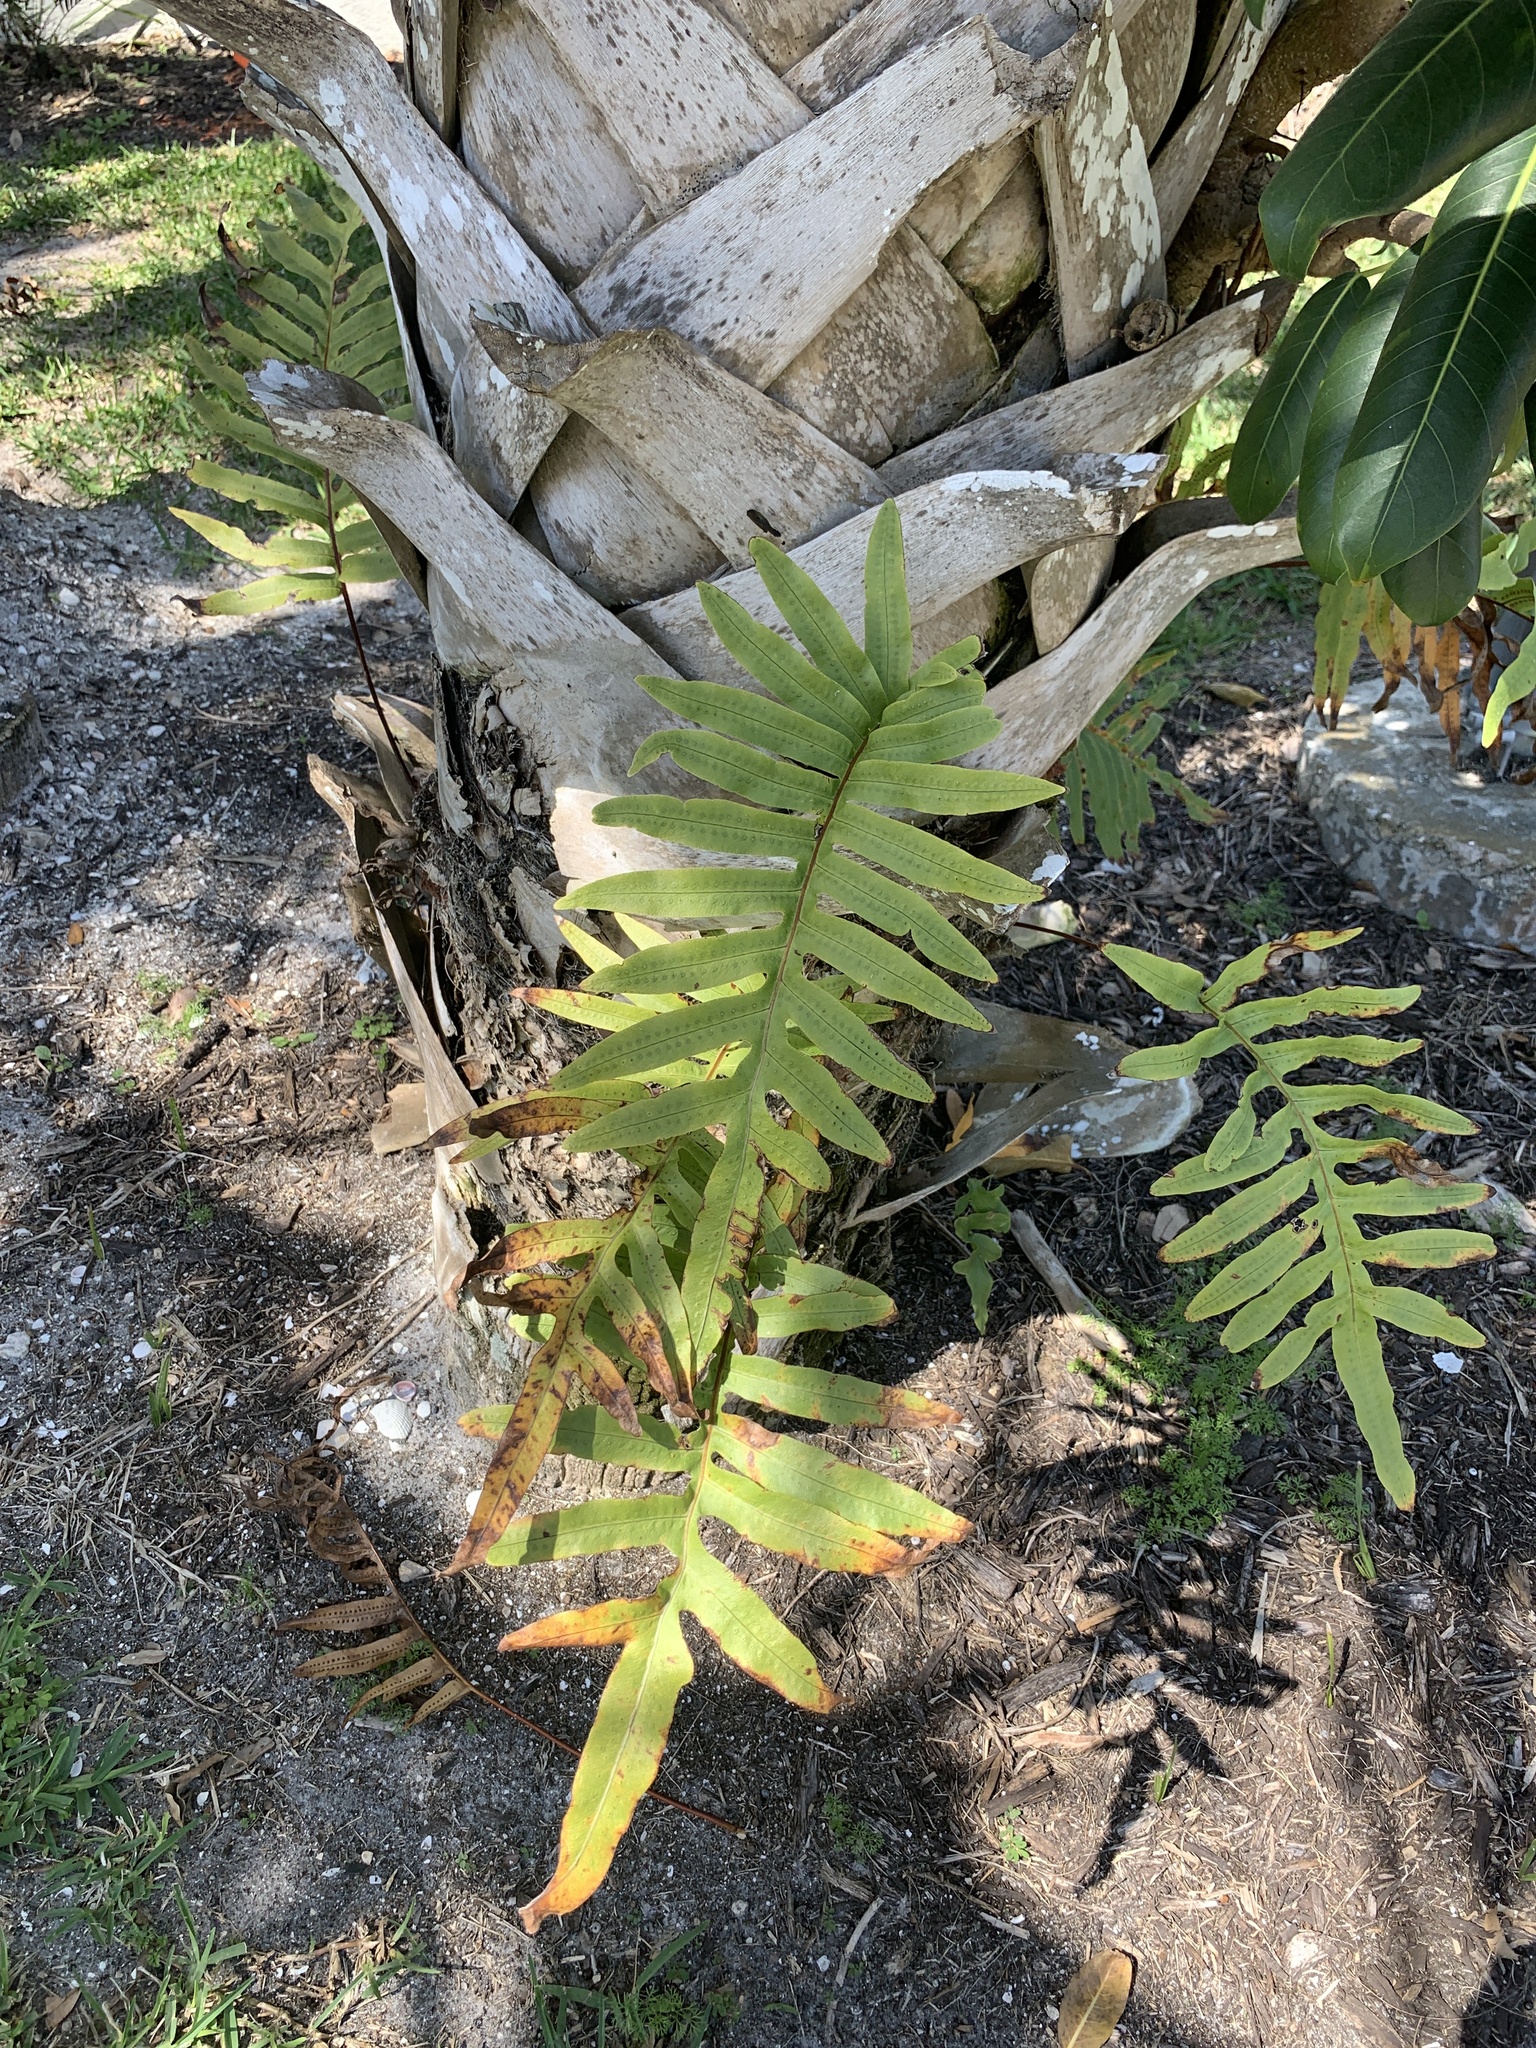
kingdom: Plantae
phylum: Tracheophyta
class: Polypodiopsida
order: Polypodiales
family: Polypodiaceae
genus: Phlebodium
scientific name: Phlebodium aureum
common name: Gold-foot fern
